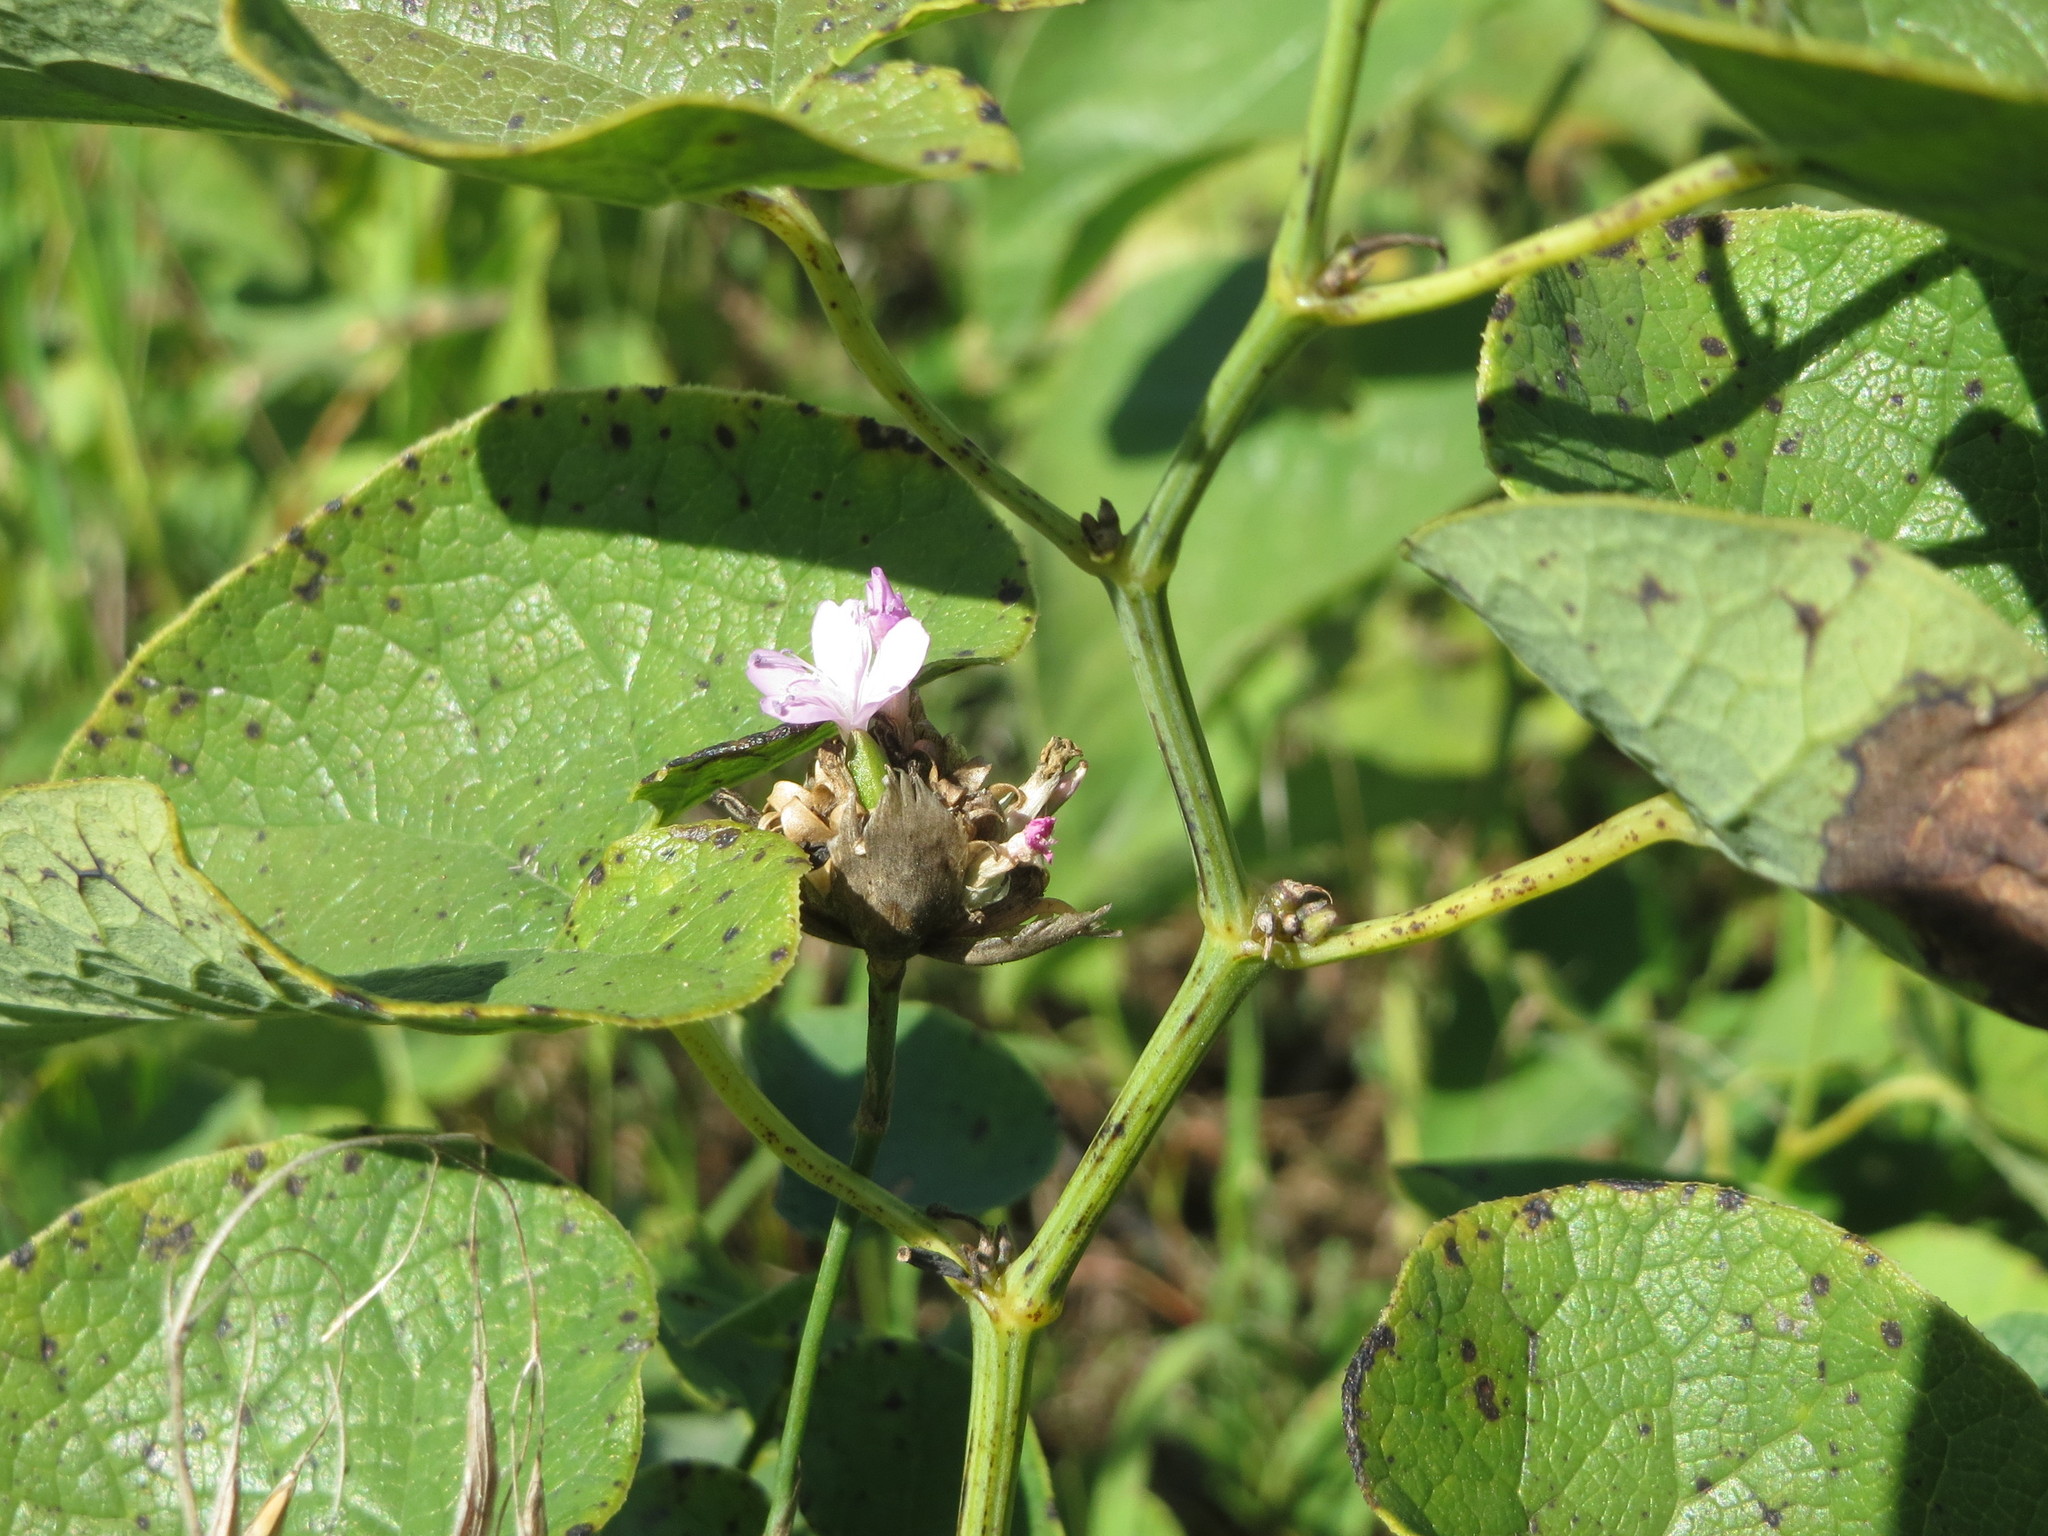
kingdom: Plantae
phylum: Tracheophyta
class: Magnoliopsida
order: Piperales
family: Aristolochiaceae
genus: Aristolochia
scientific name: Aristolochia clematitis
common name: Birthwort
